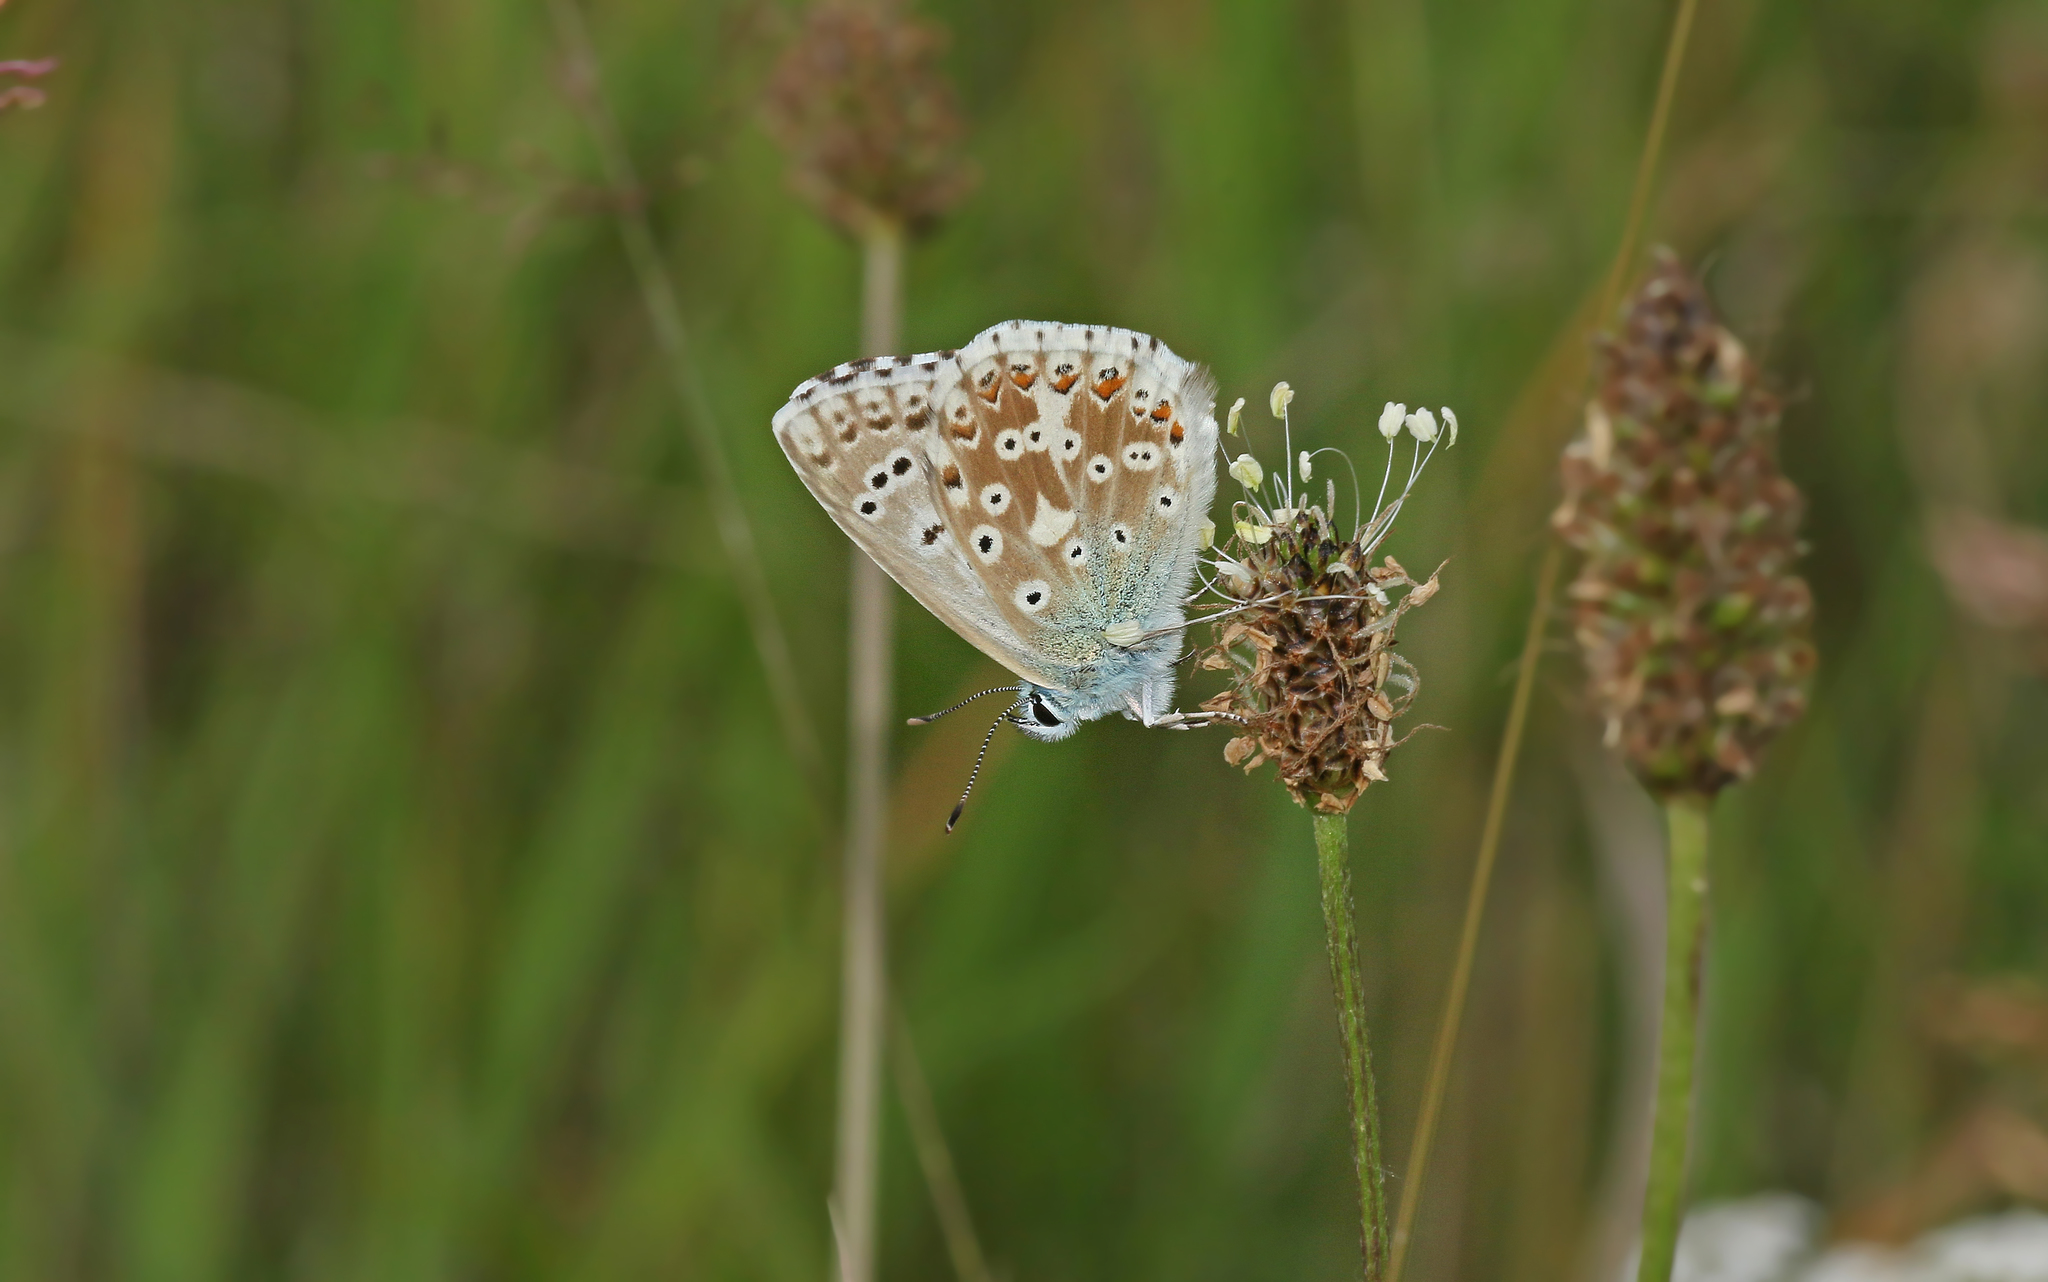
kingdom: Animalia
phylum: Arthropoda
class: Insecta
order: Lepidoptera
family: Lycaenidae
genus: Lysandra
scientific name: Lysandra coridon
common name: Chalkhill blue
